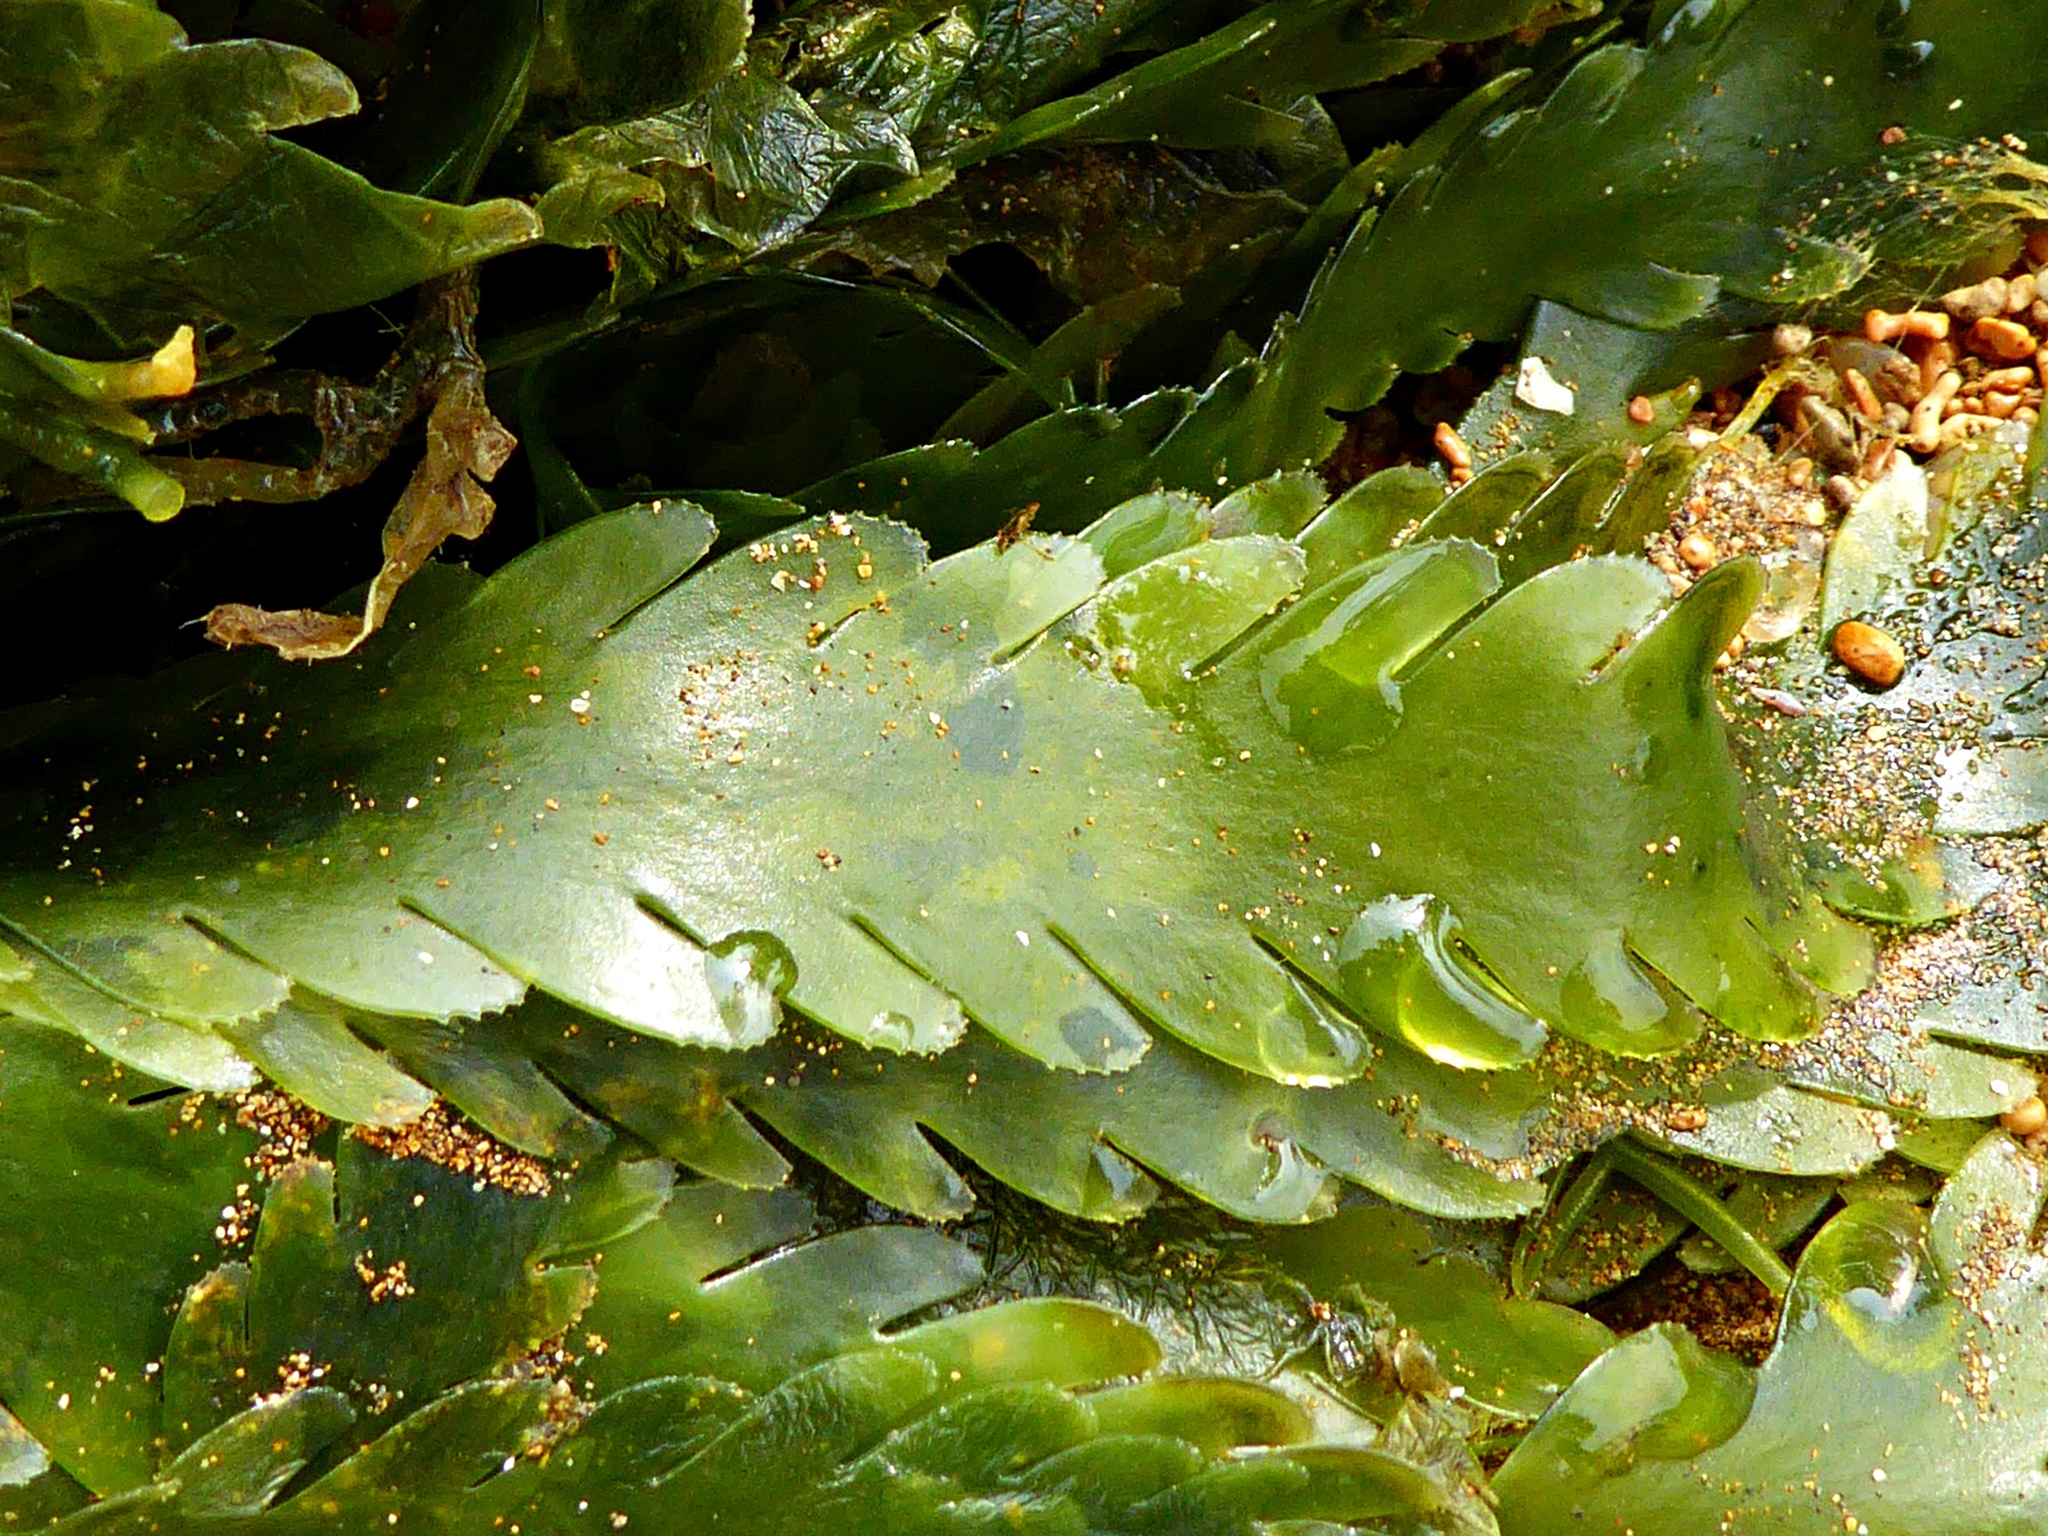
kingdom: Plantae
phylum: Chlorophyta
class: Ulvophyceae
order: Bryopsidales
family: Caulerpaceae
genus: Caulerpa
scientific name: Caulerpa denticulata
